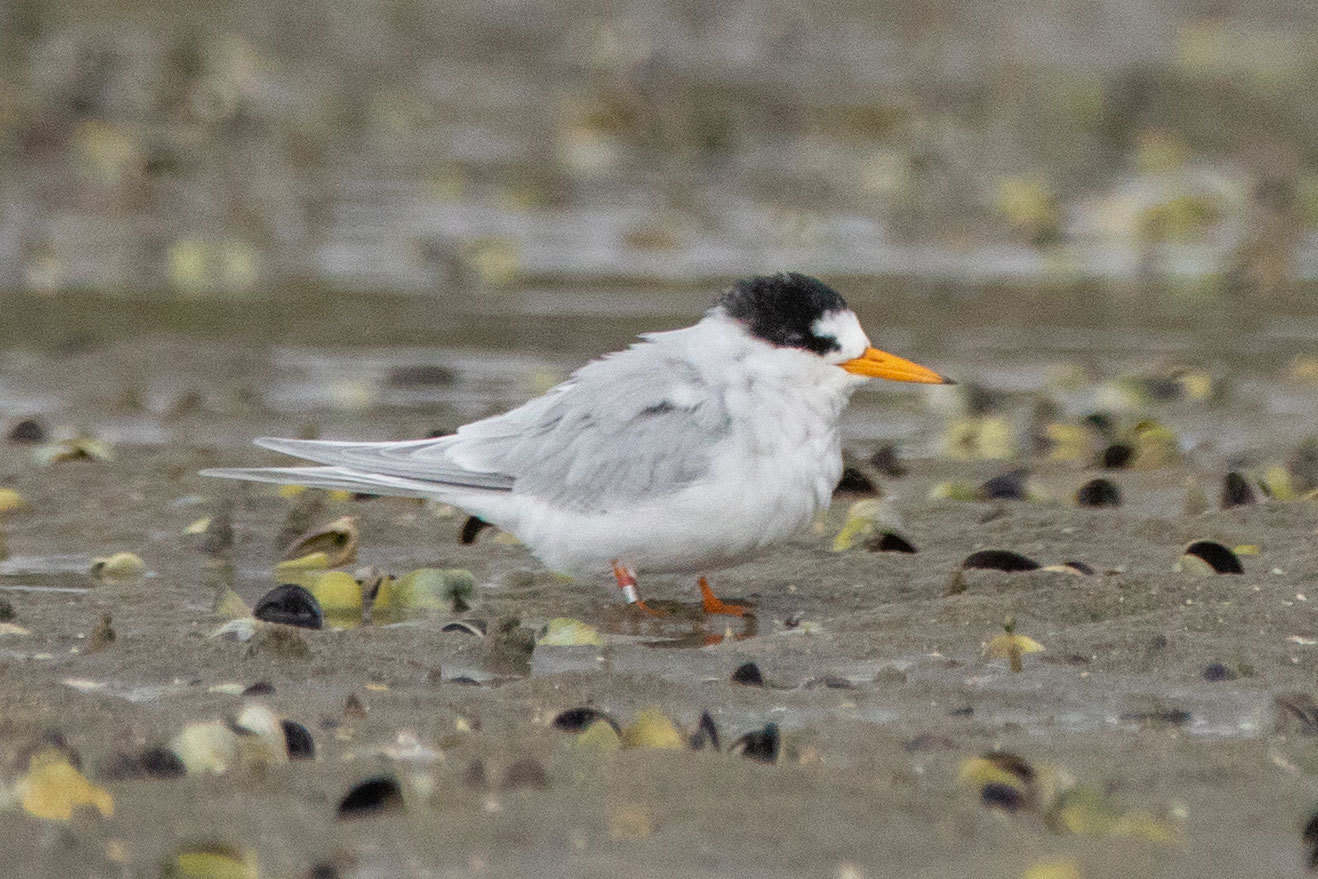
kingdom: Animalia
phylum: Chordata
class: Aves
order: Charadriiformes
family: Laridae
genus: Sternula
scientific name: Sternula nereis
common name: Fairy tern
